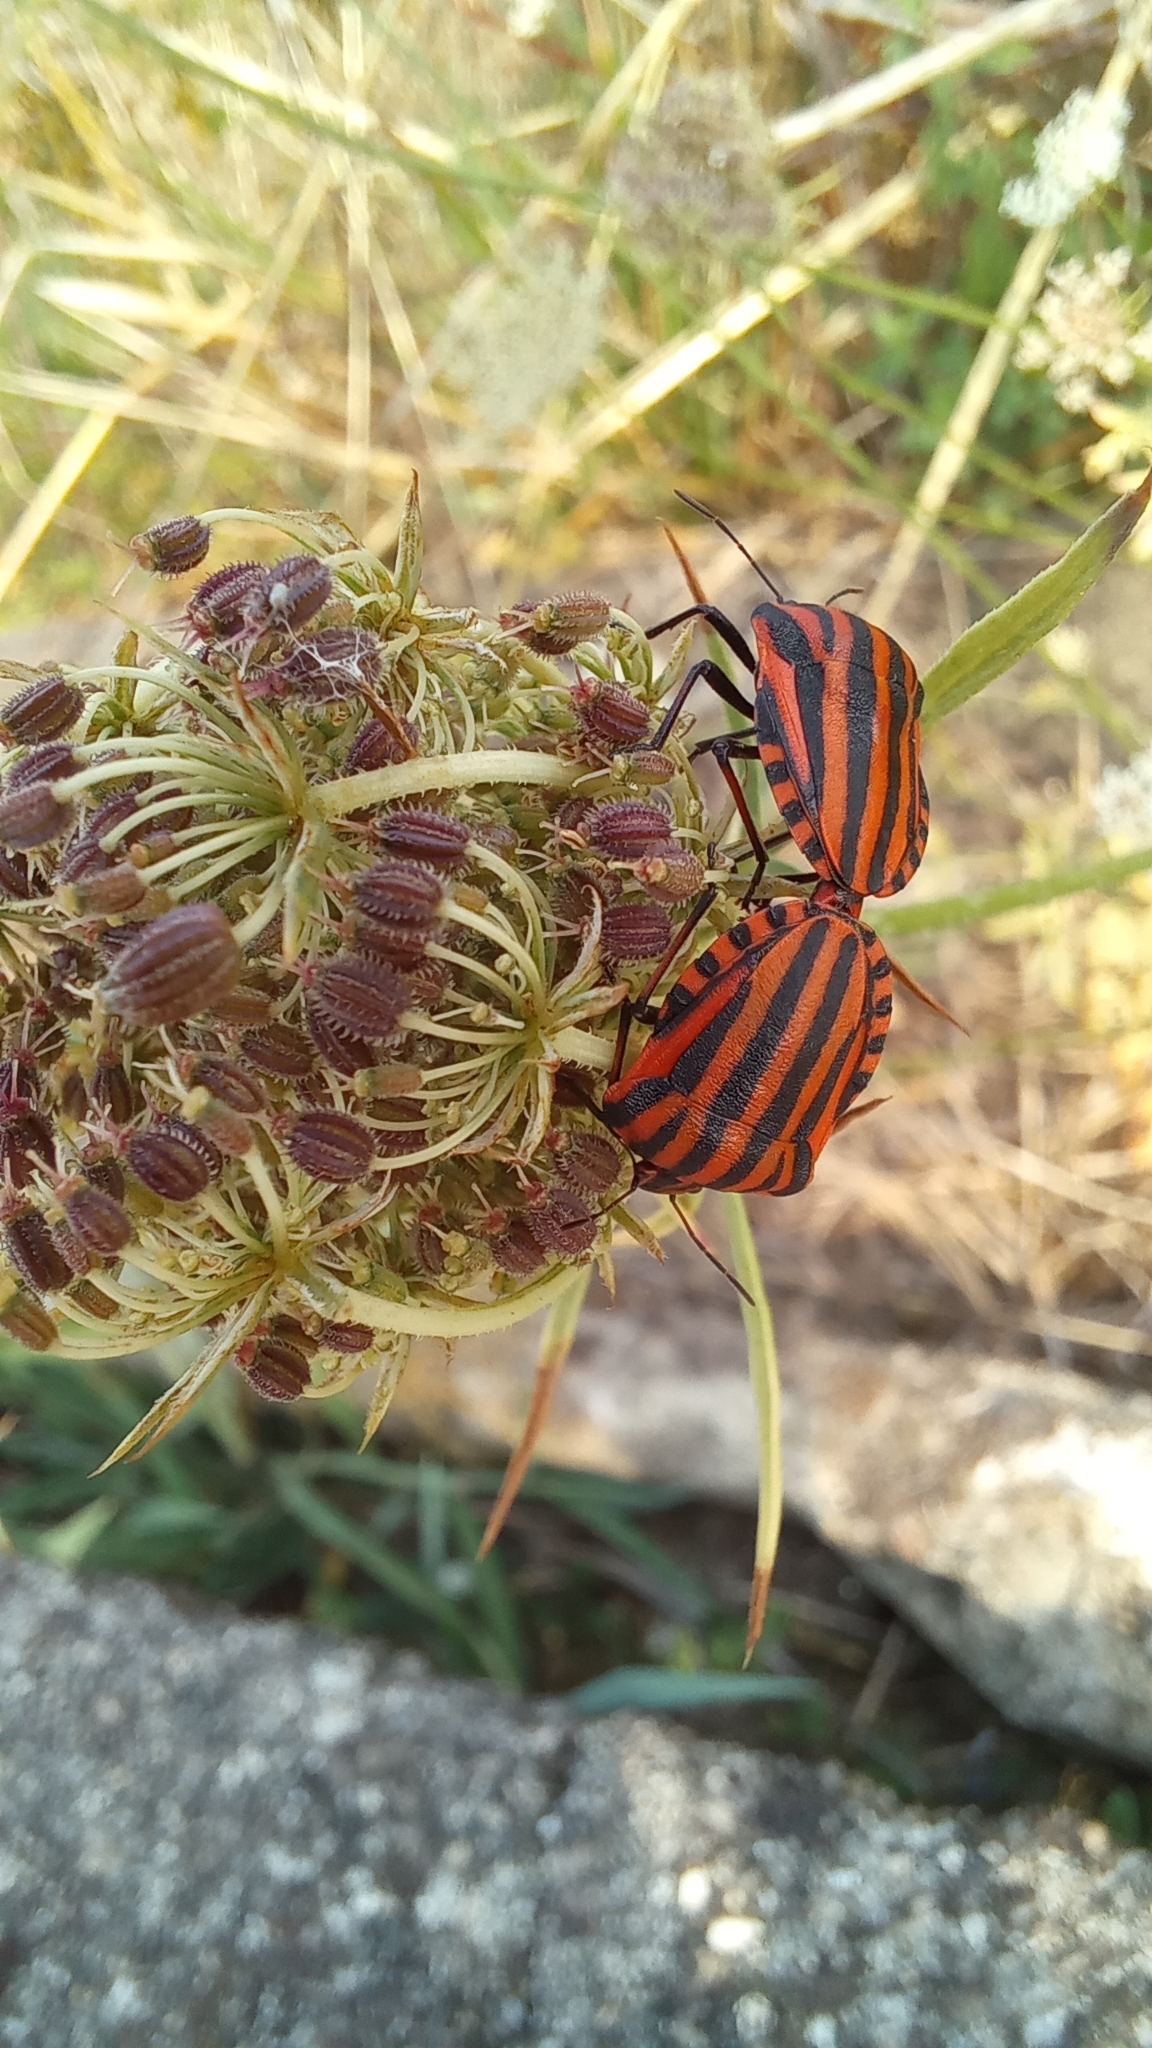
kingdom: Animalia
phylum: Arthropoda
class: Insecta
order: Hemiptera
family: Pentatomidae
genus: Graphosoma
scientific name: Graphosoma italicum
